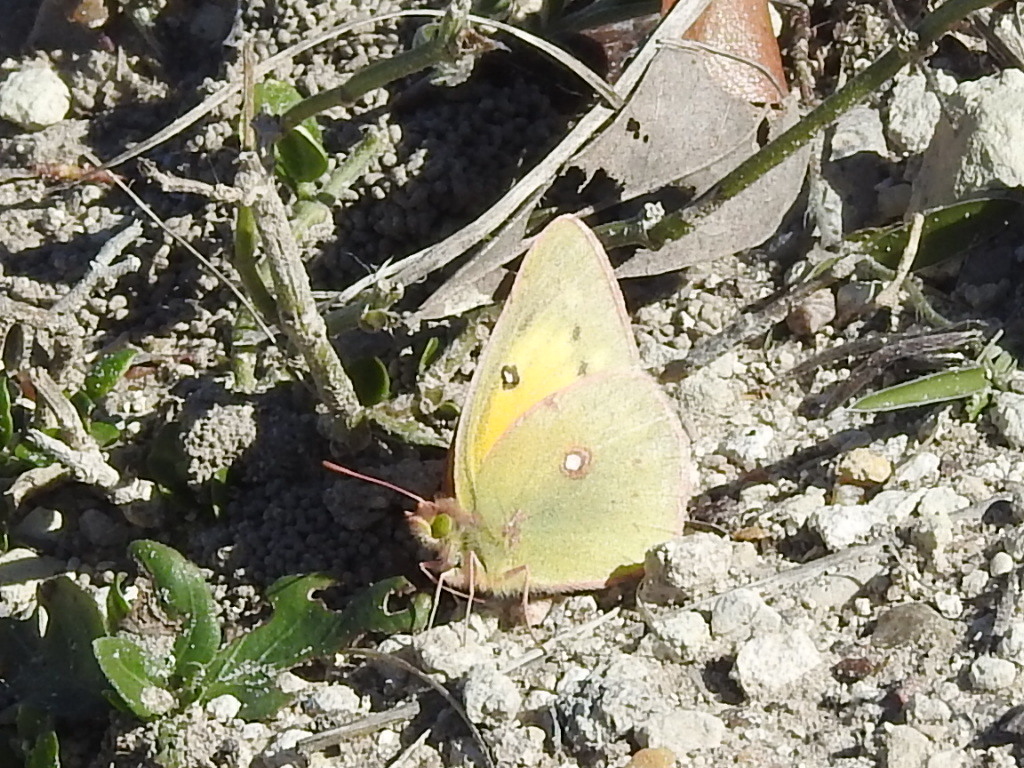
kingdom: Animalia
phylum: Arthropoda
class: Insecta
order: Lepidoptera
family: Pieridae
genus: Colias
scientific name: Colias eurytheme
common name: Alfalfa butterfly
